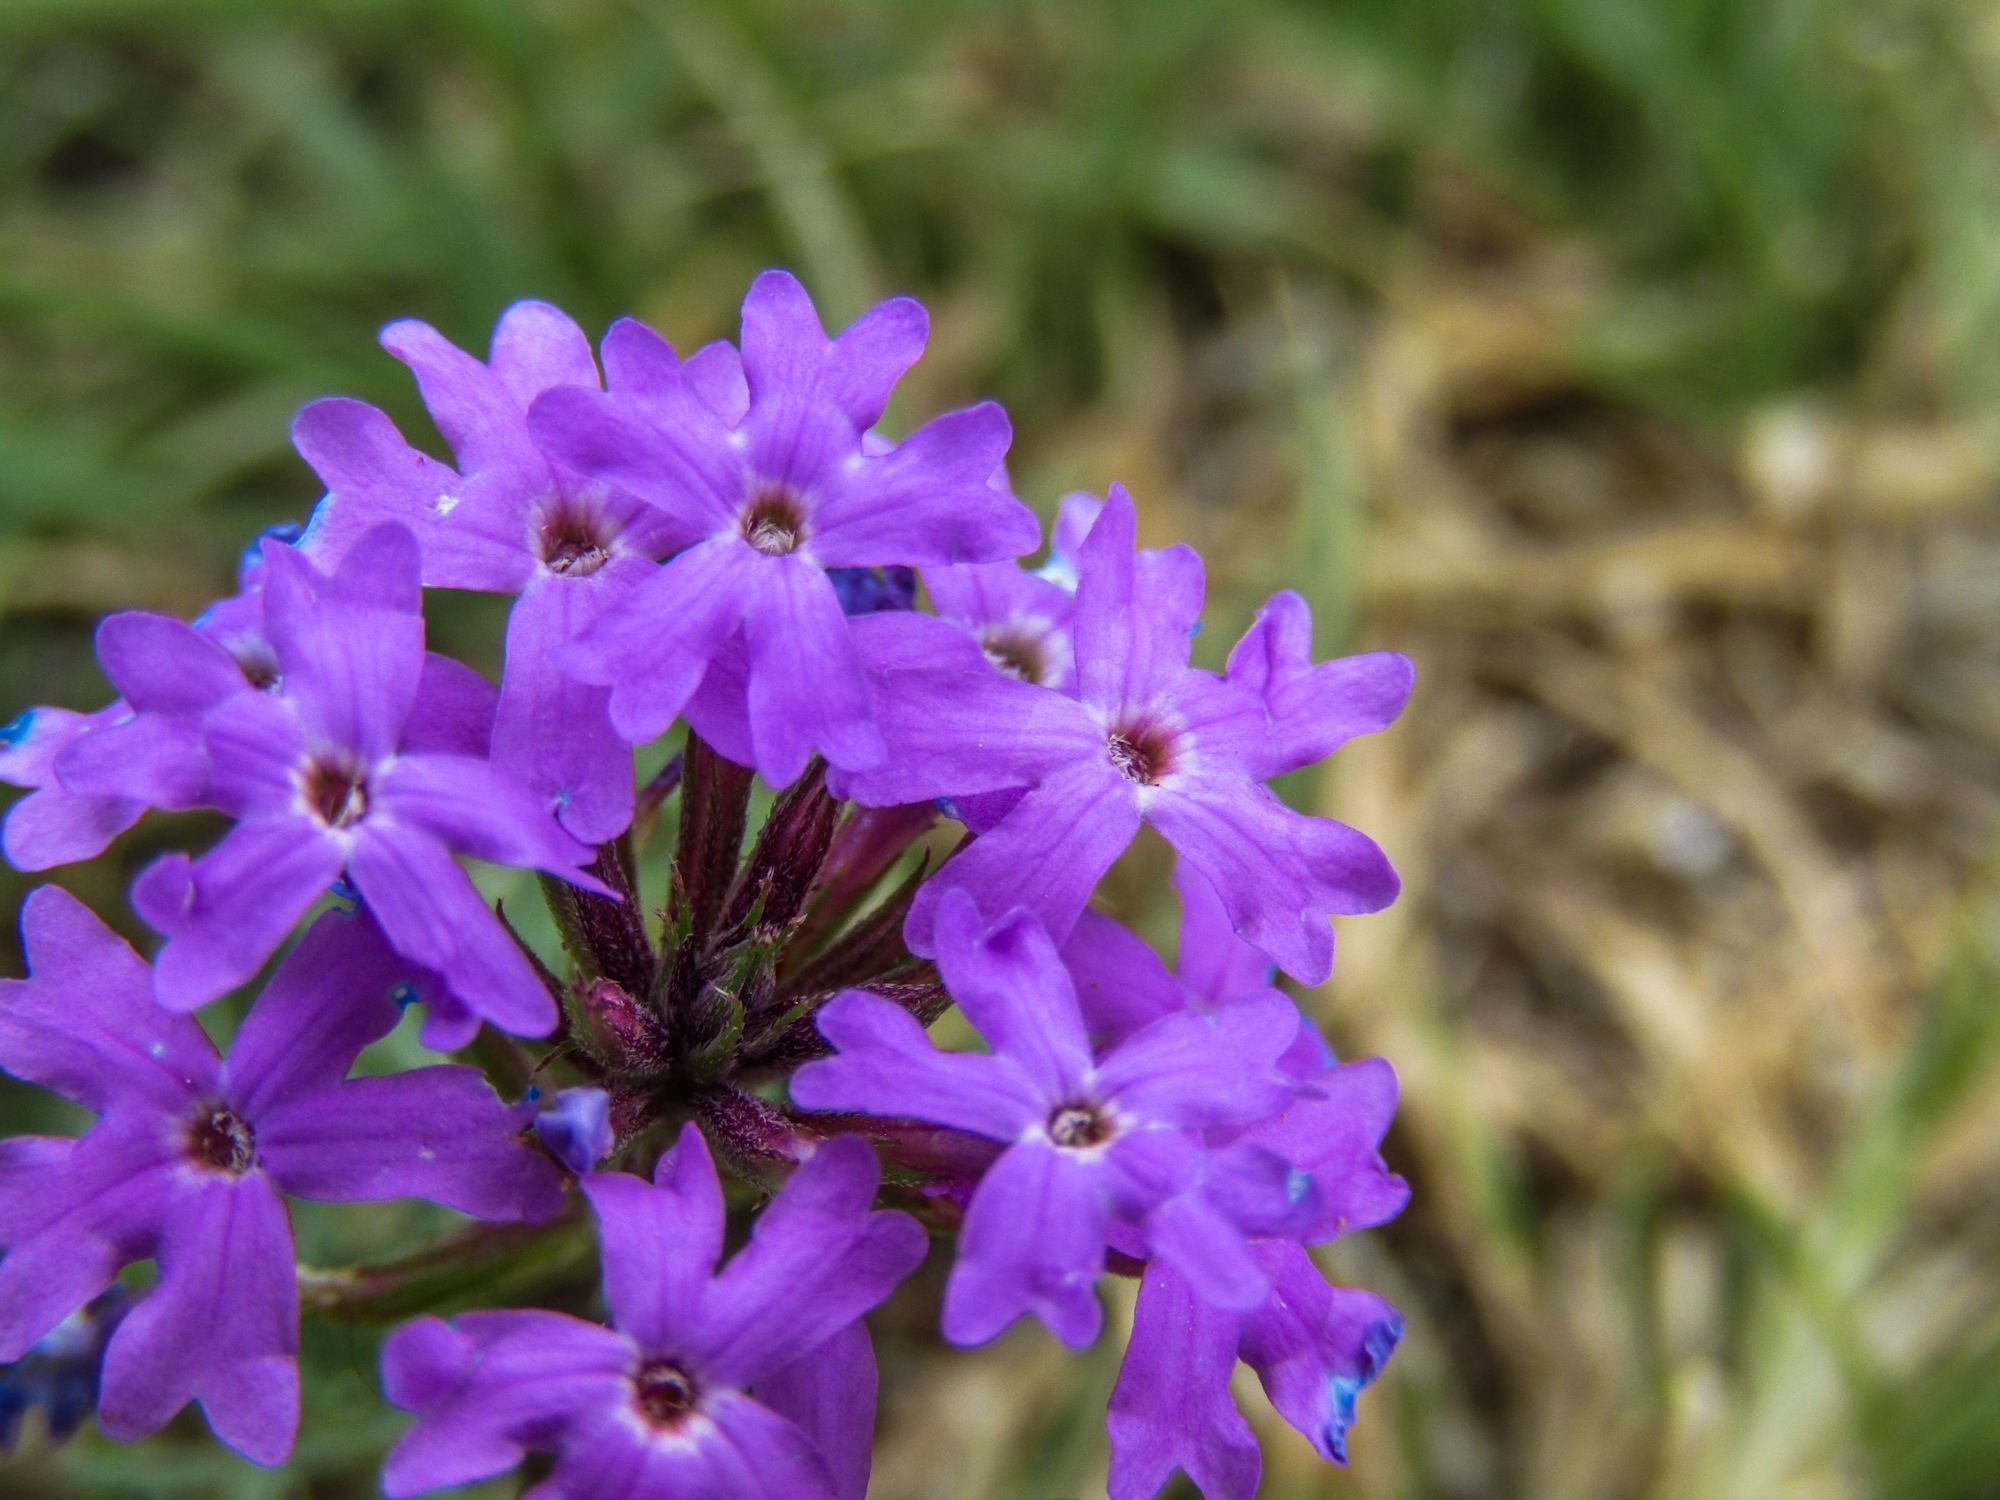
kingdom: Plantae
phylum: Tracheophyta
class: Magnoliopsida
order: Lamiales
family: Verbenaceae
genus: Verbena
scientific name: Verbena tenera
